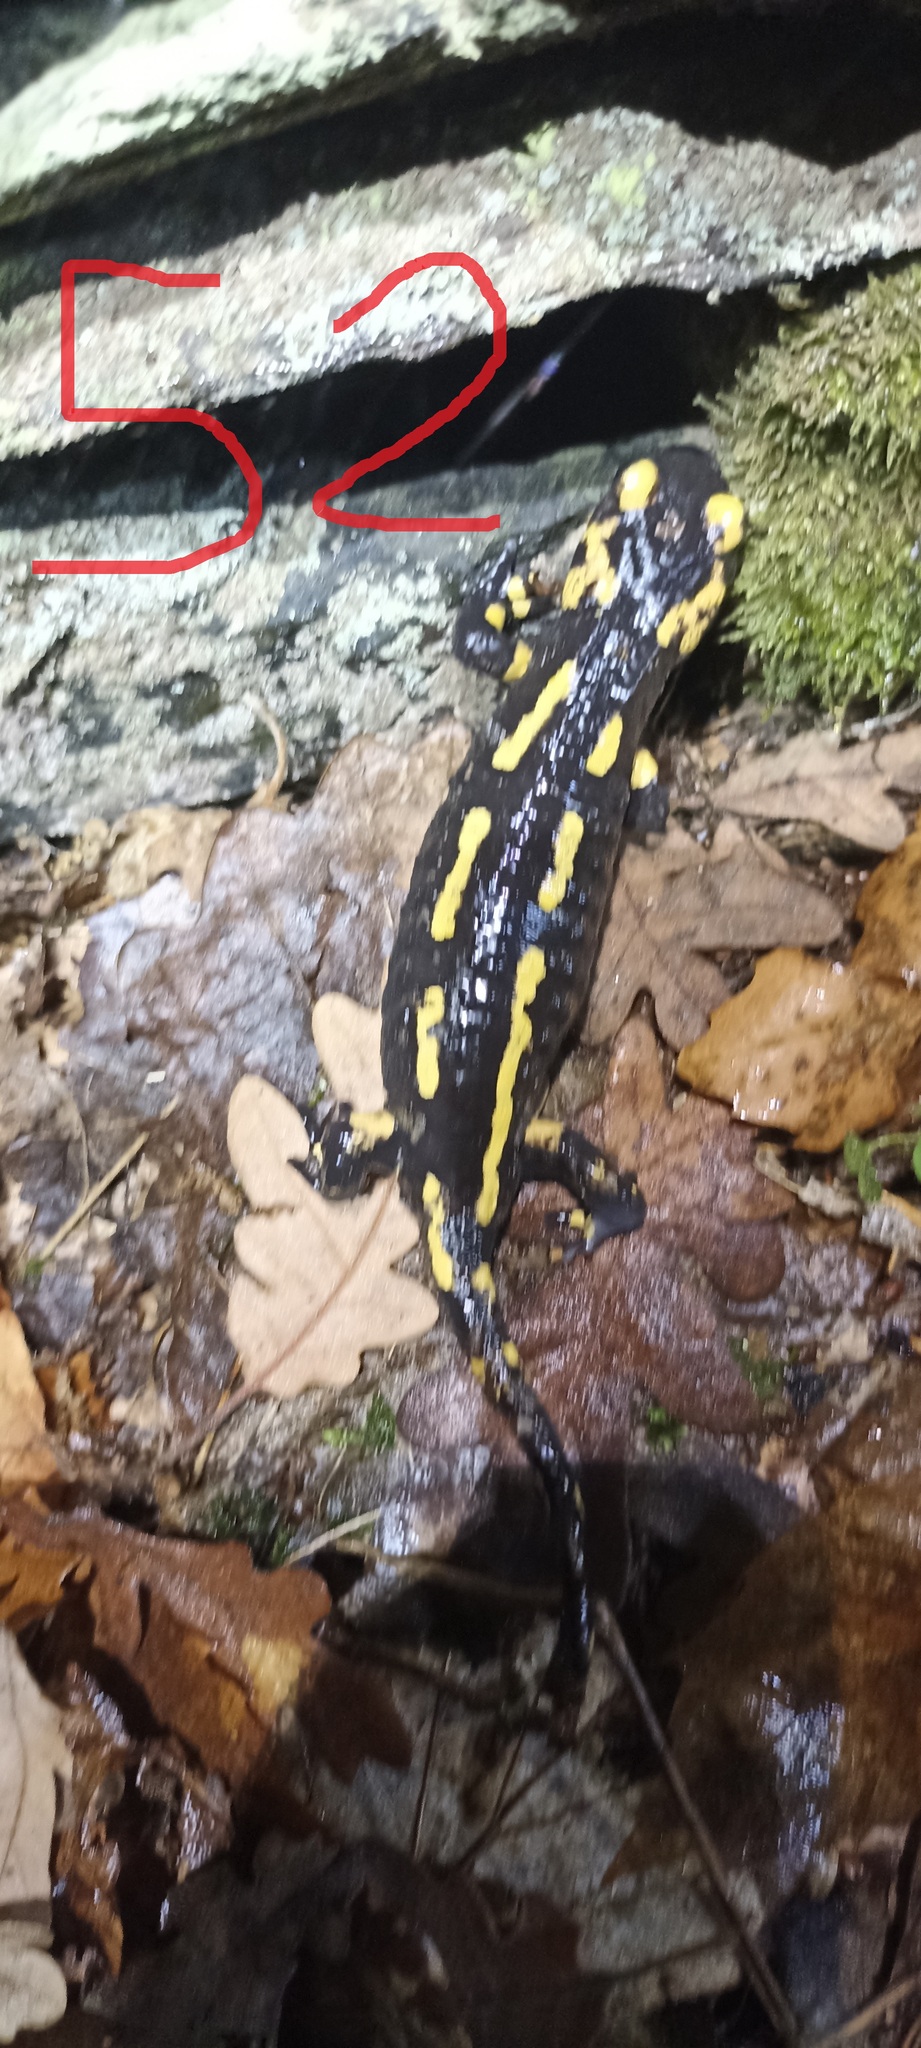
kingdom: Animalia
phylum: Chordata
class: Amphibia
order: Caudata
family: Salamandridae
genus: Salamandra
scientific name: Salamandra salamandra
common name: Fire salamander
